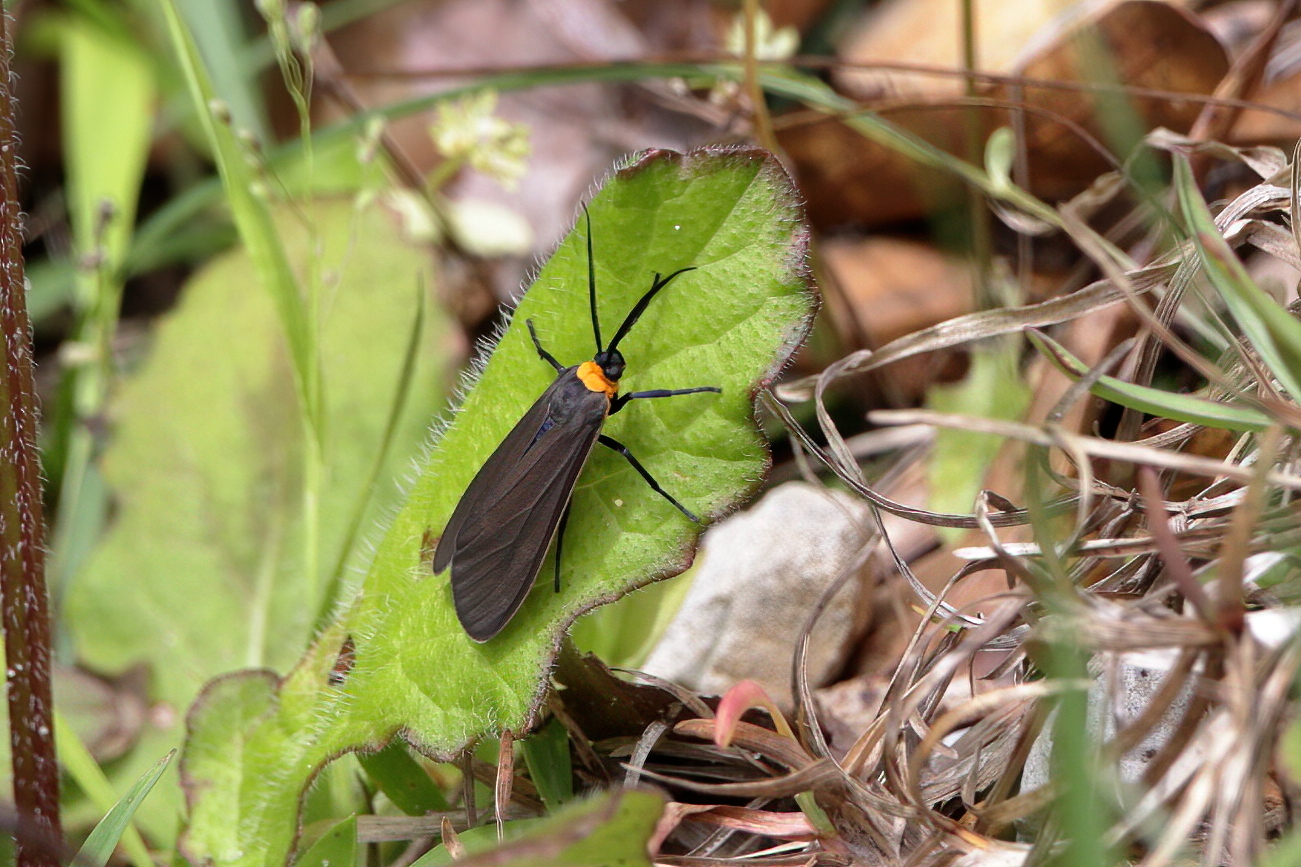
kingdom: Animalia
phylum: Arthropoda
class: Insecta
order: Lepidoptera
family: Erebidae
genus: Cisseps
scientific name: Cisseps fulvicollis
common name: Yellow-collared scape moth
